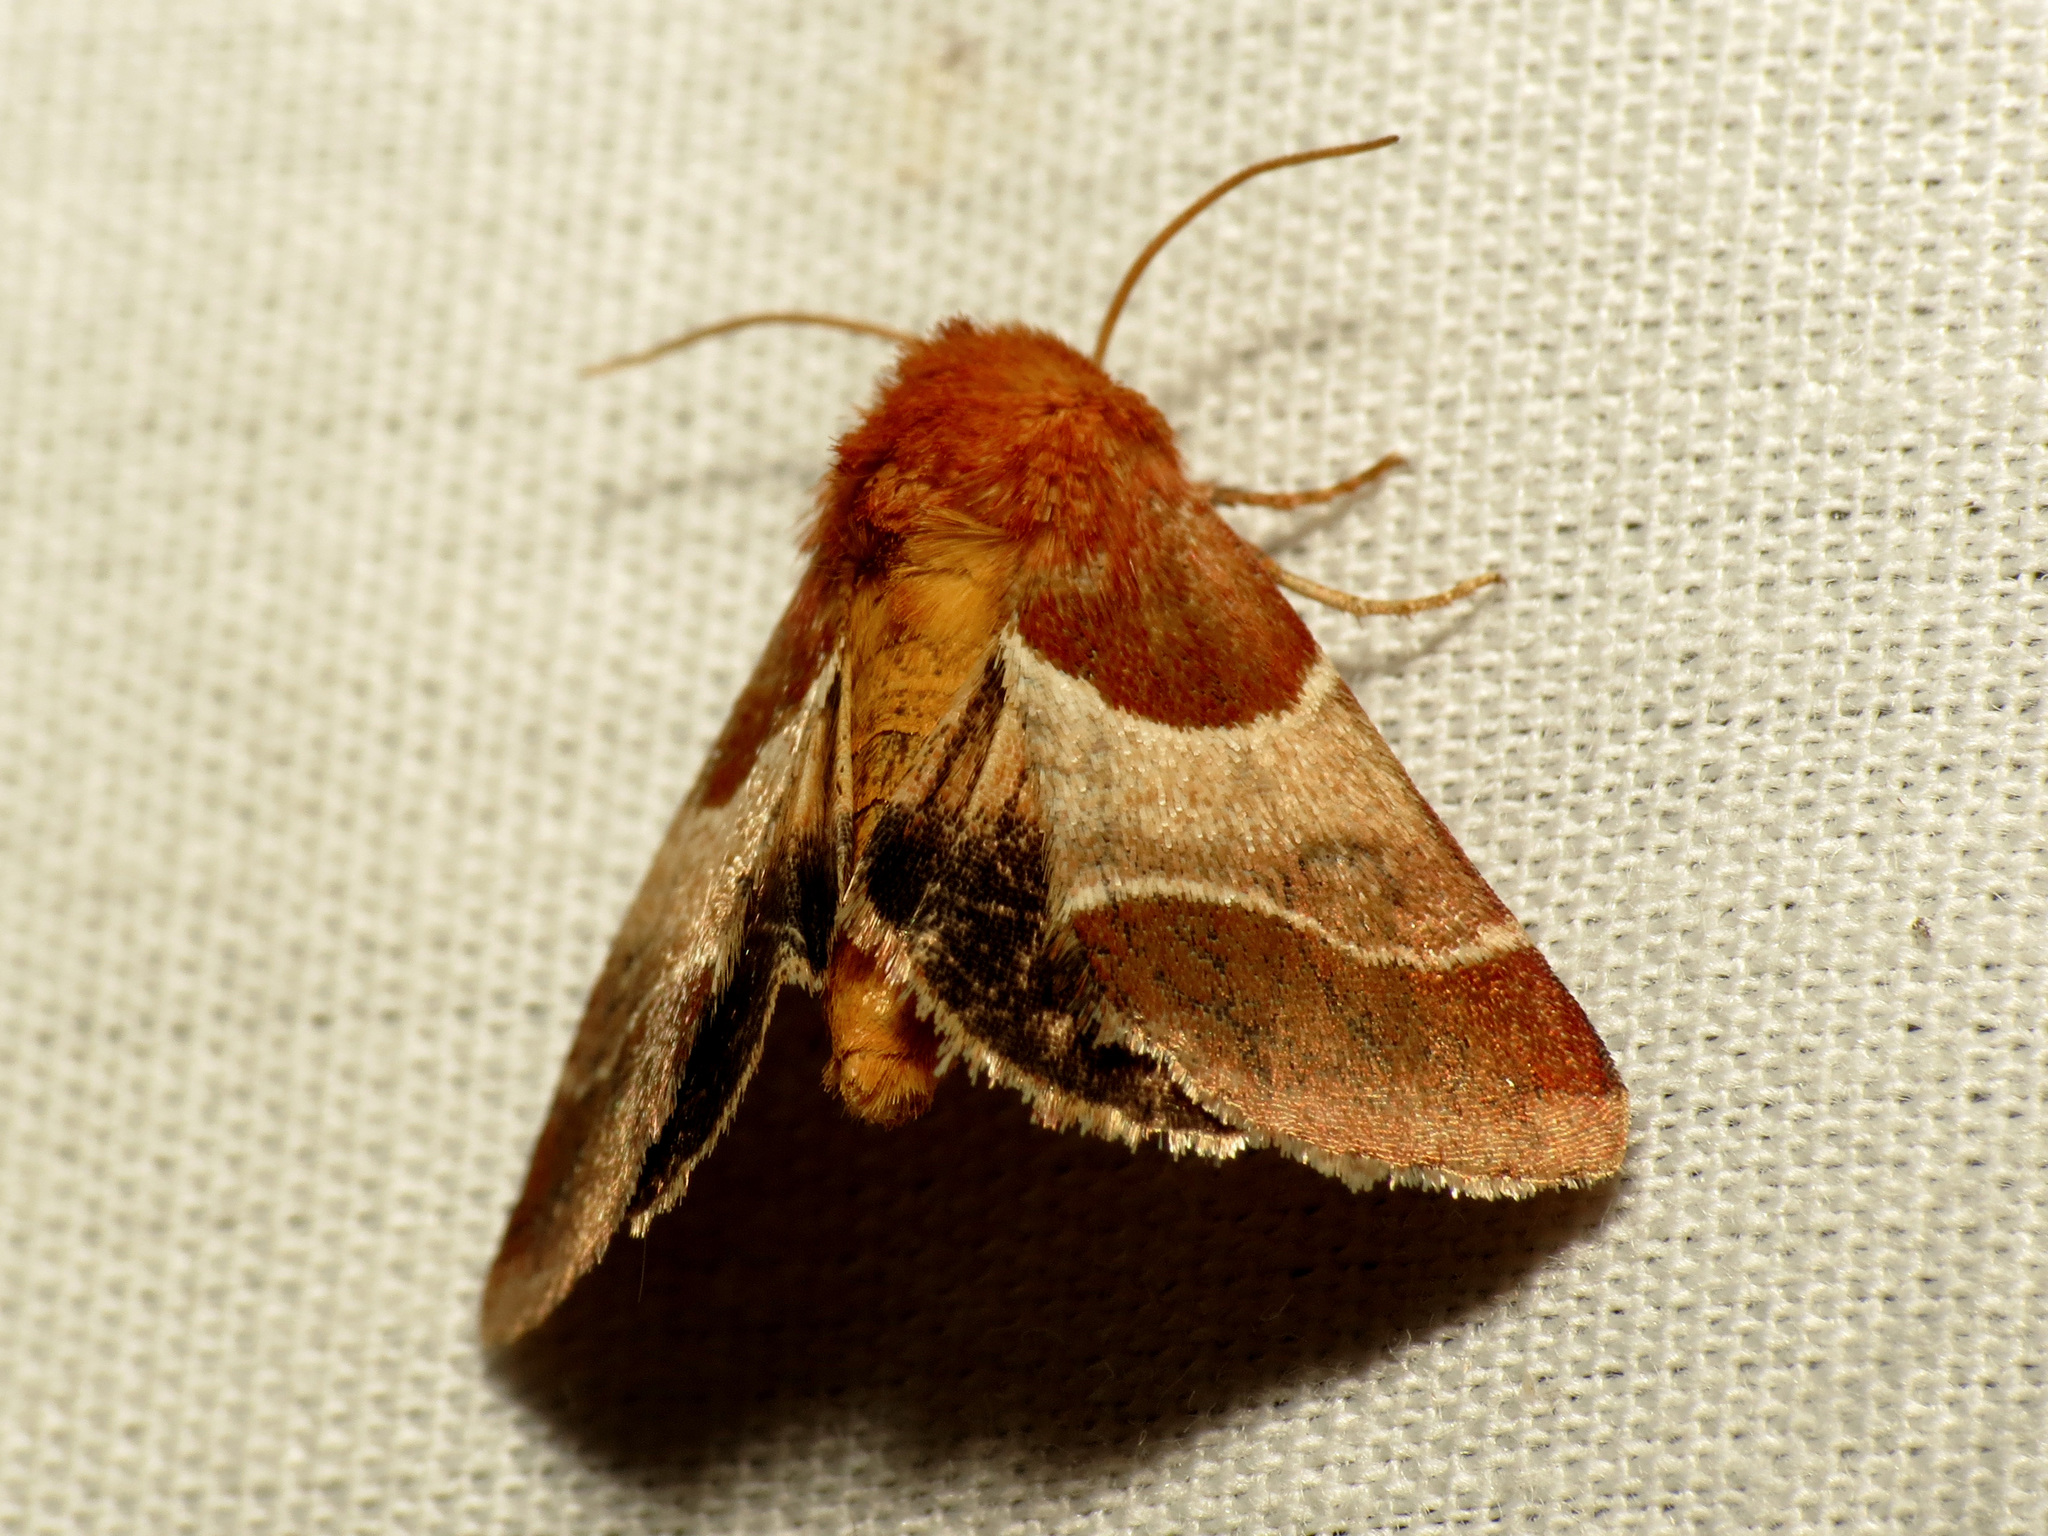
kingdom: Animalia
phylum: Arthropoda
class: Insecta
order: Lepidoptera
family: Noctuidae
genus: Schinia
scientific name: Schinia arcigera
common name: Arcigera flower moth
